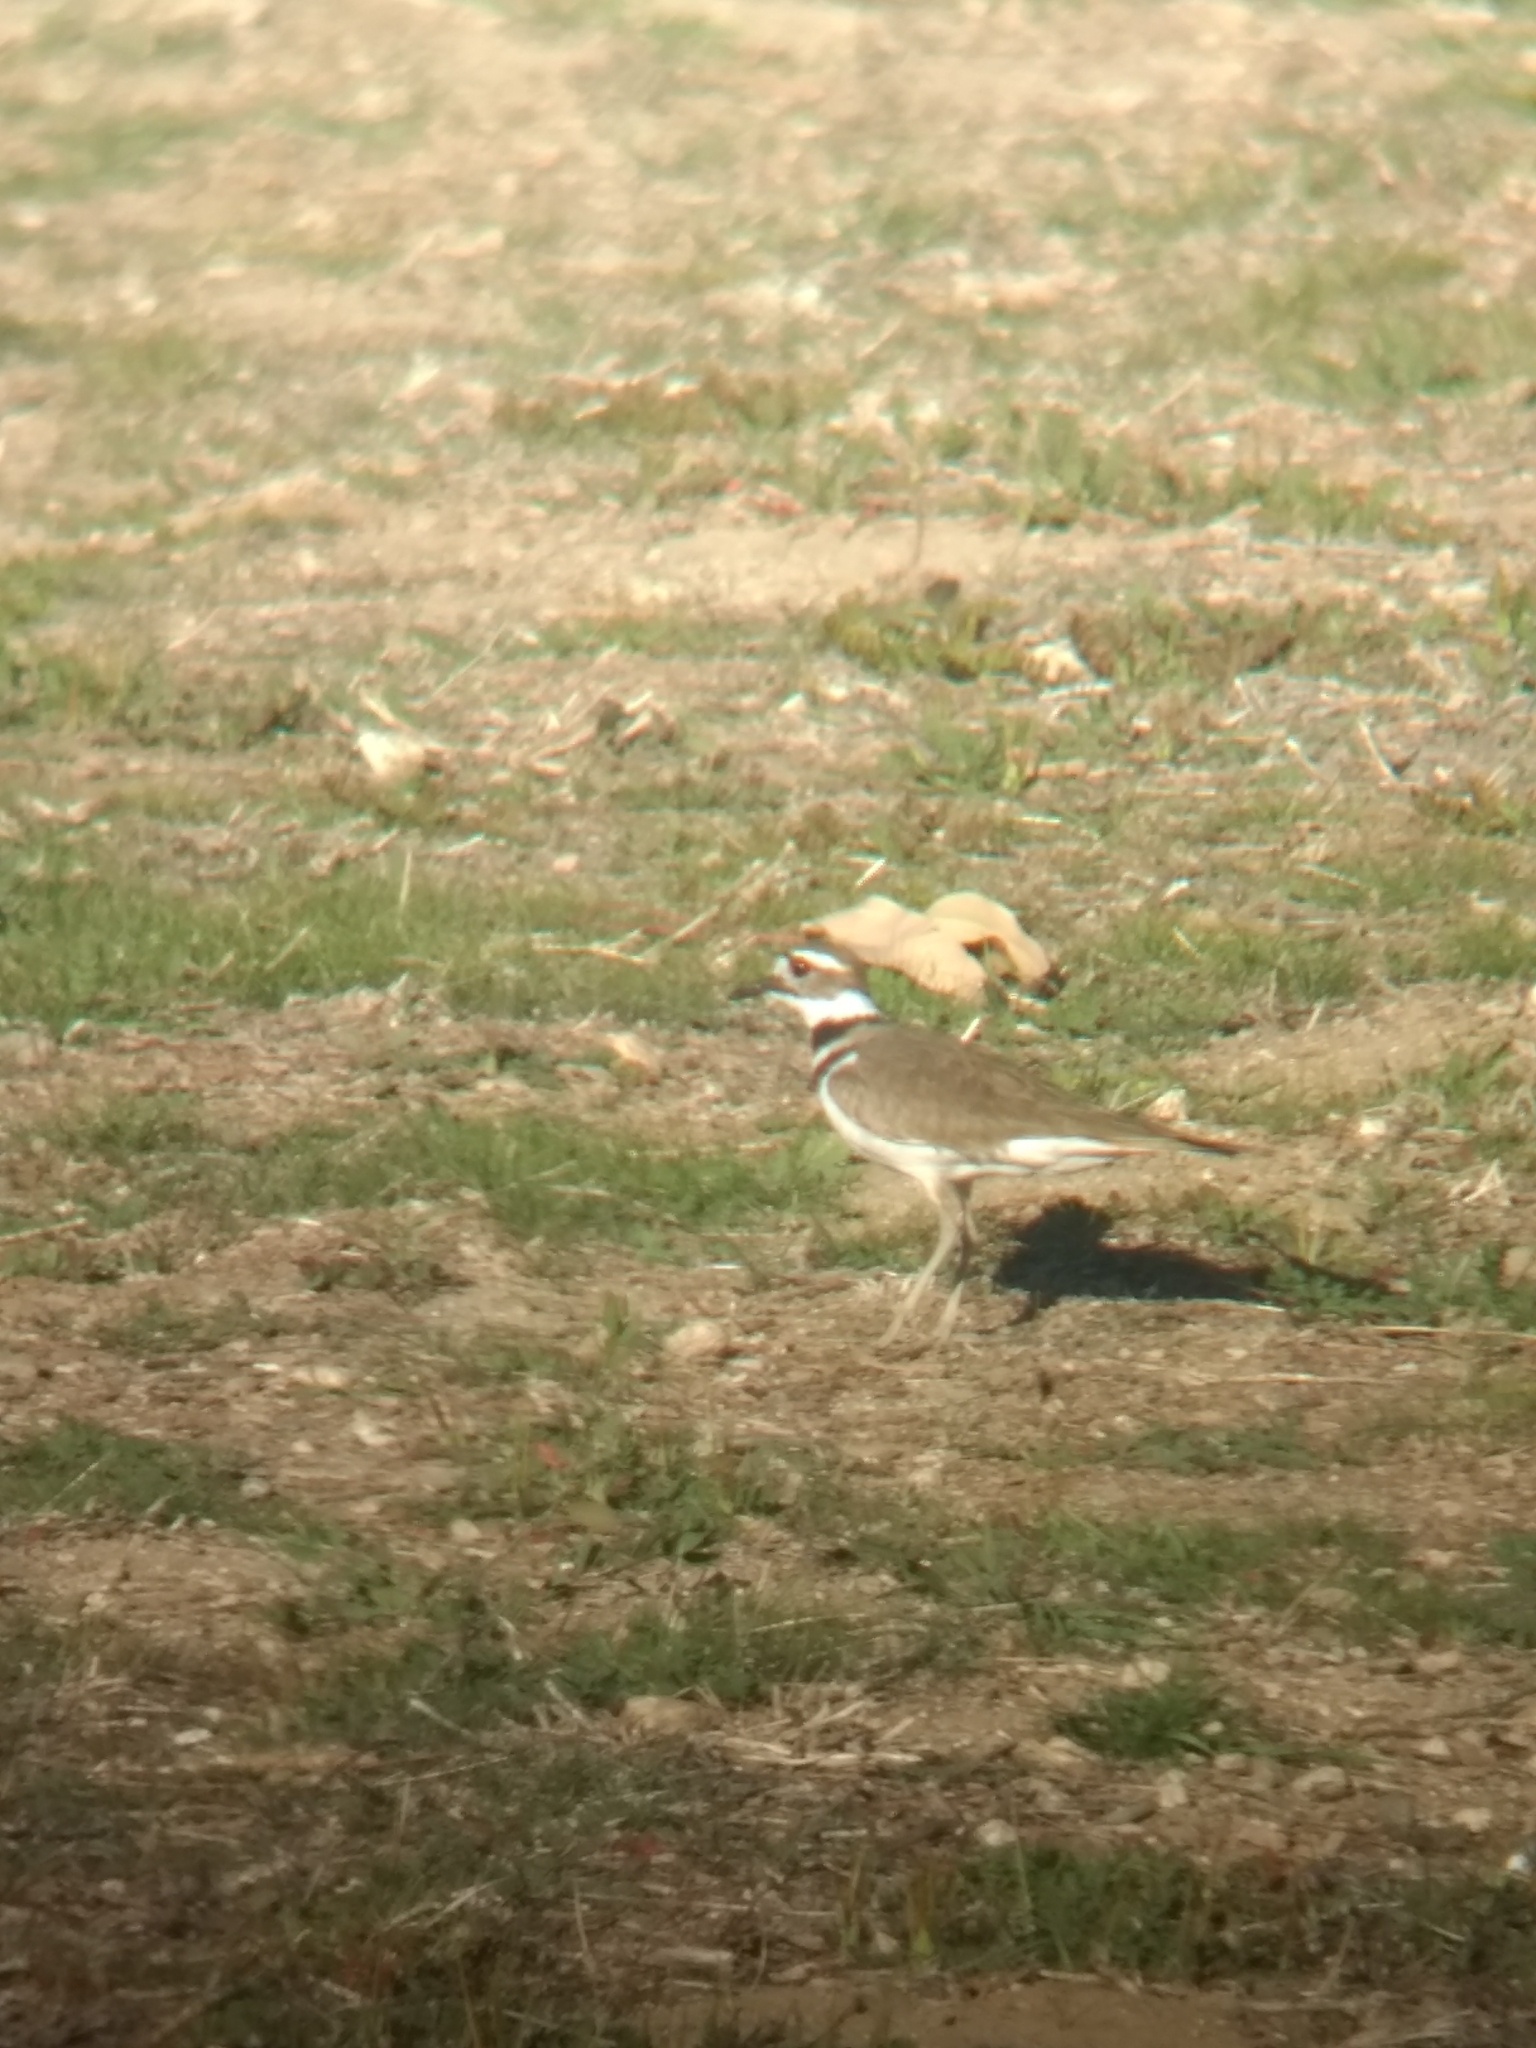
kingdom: Animalia
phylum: Chordata
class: Aves
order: Charadriiformes
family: Charadriidae
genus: Charadrius
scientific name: Charadrius vociferus
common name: Killdeer
